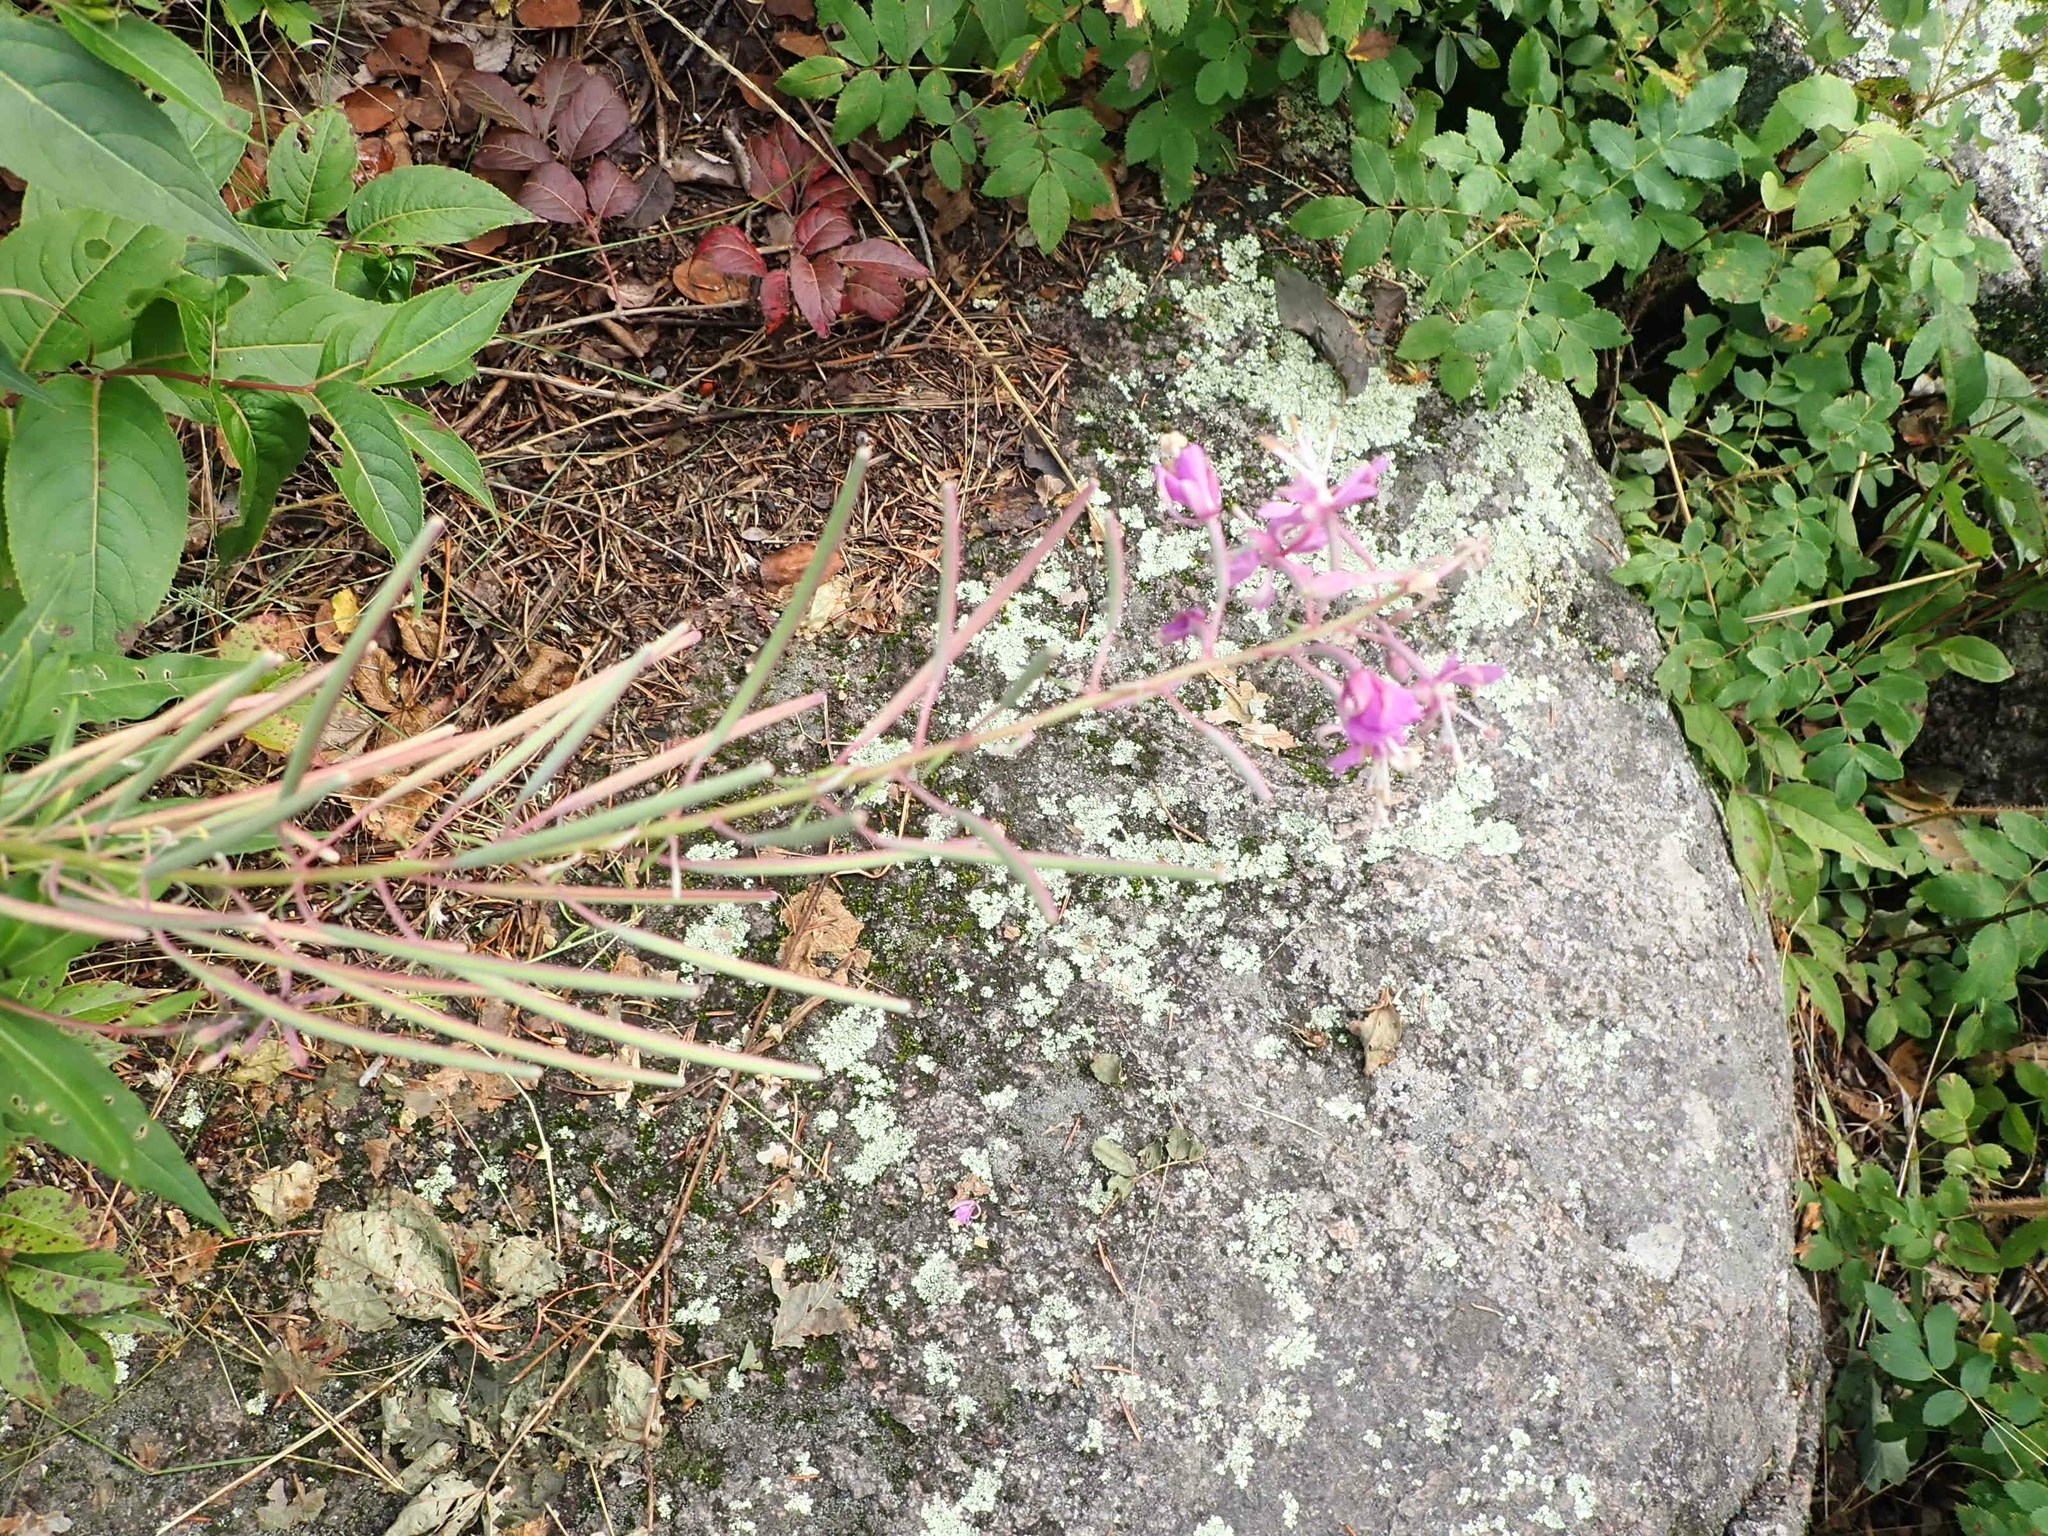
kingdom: Plantae
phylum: Tracheophyta
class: Magnoliopsida
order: Myrtales
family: Onagraceae
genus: Chamaenerion
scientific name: Chamaenerion angustifolium
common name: Fireweed
